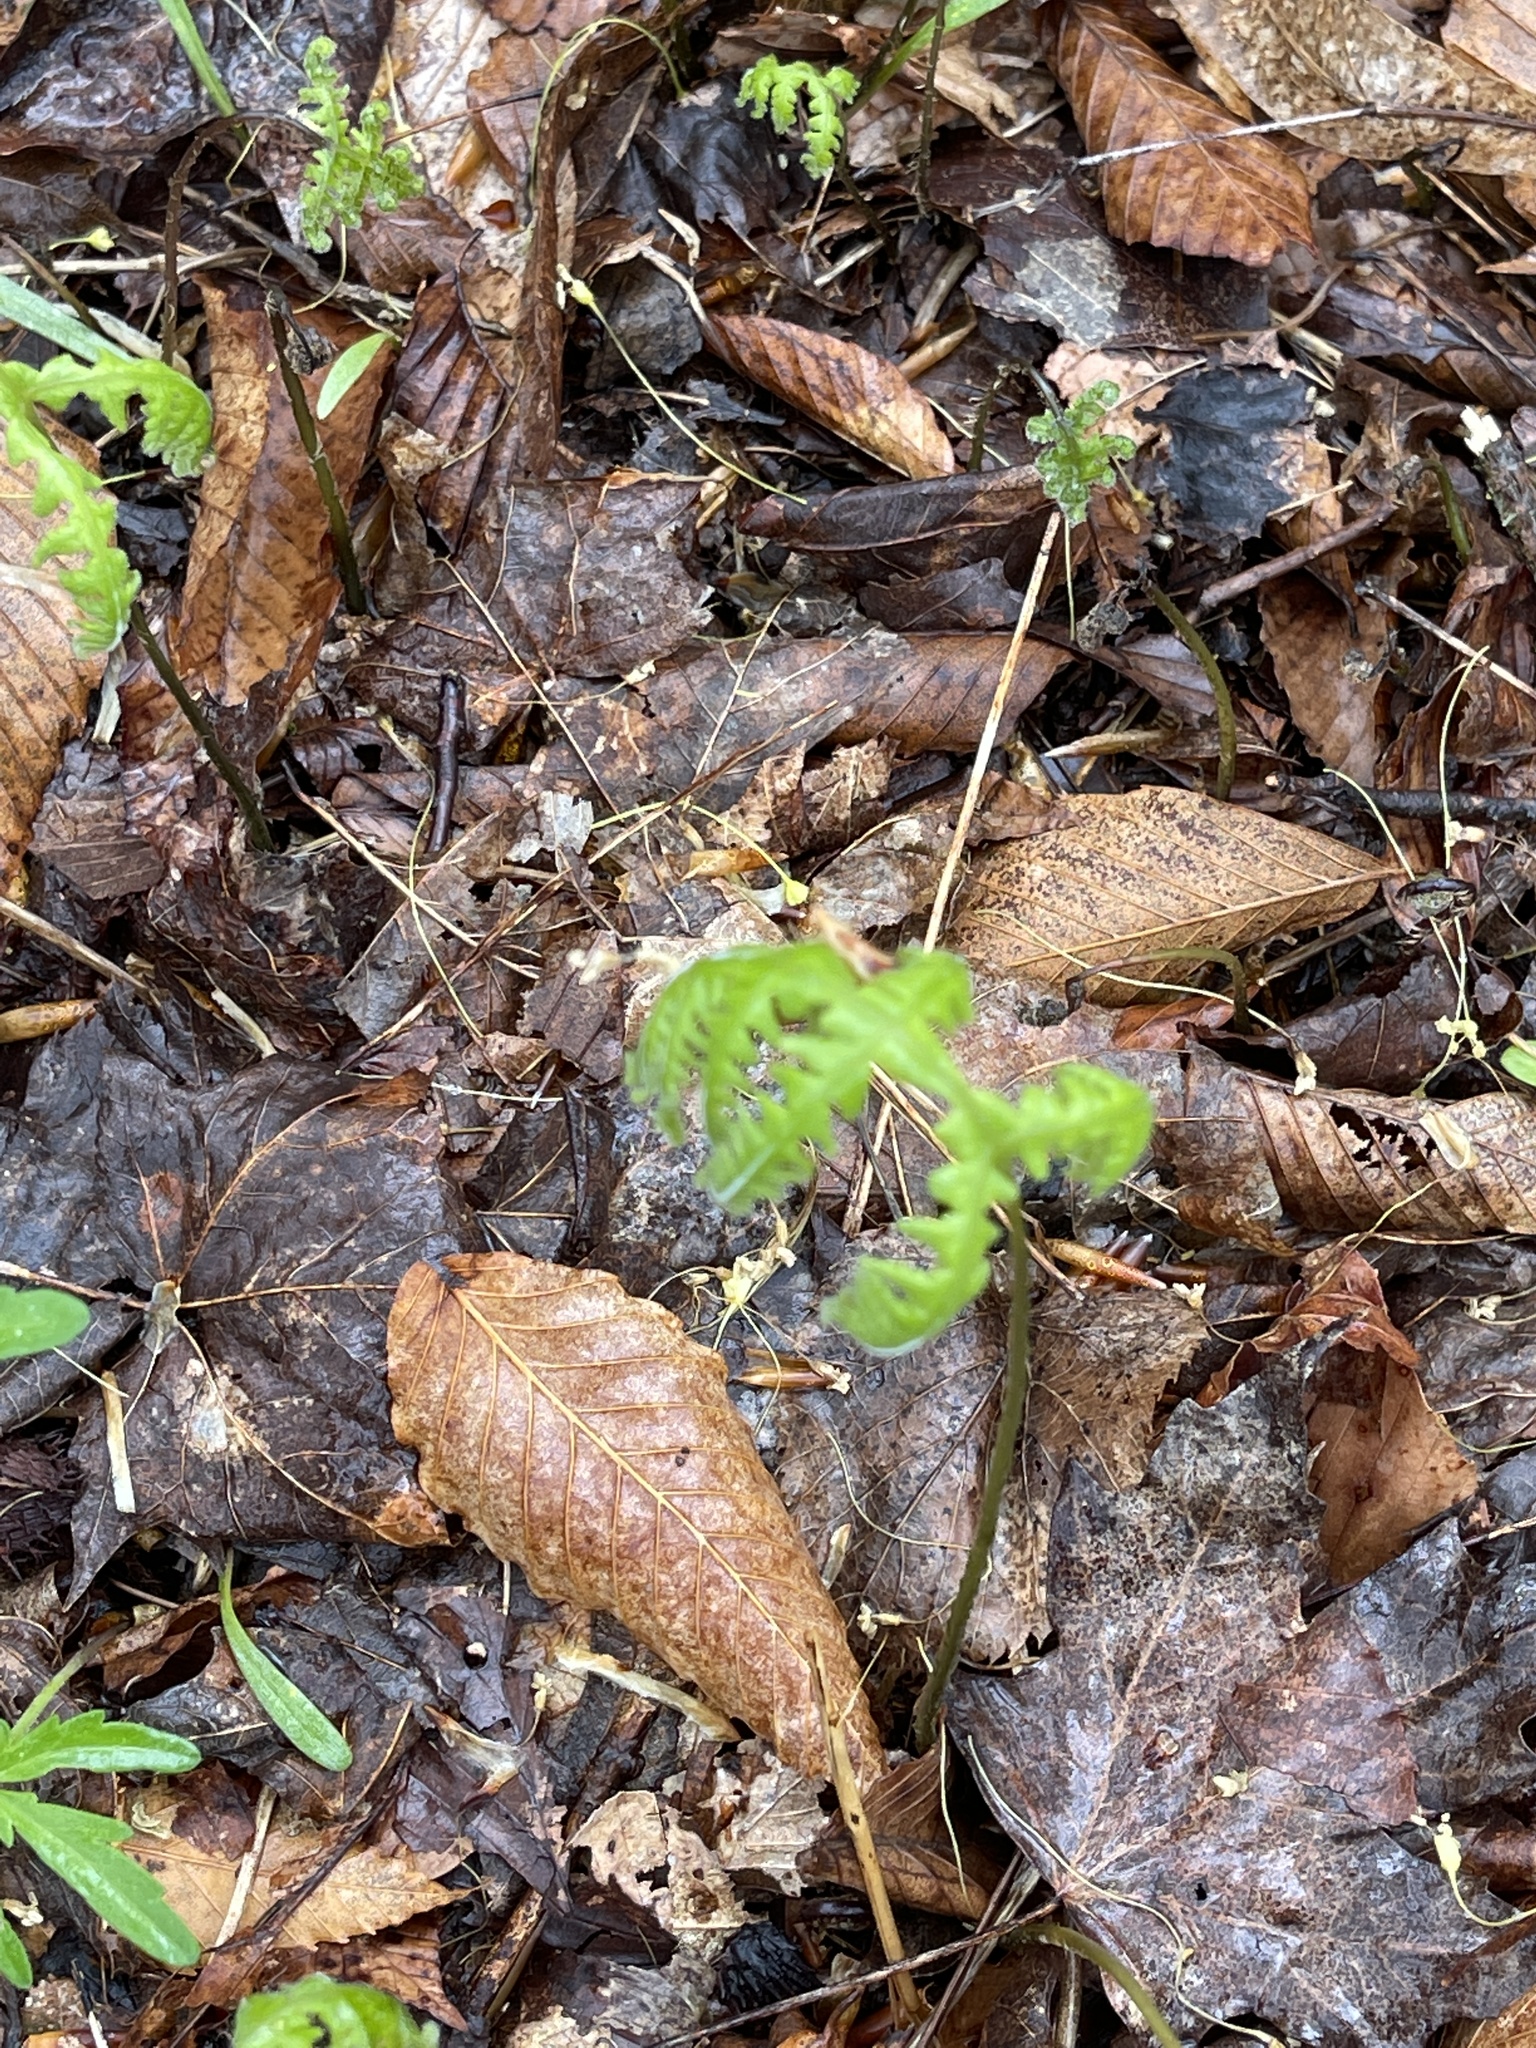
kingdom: Plantae
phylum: Tracheophyta
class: Polypodiopsida
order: Polypodiales
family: Thelypteridaceae
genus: Phegopteris
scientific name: Phegopteris hexagonoptera
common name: Broad beech fern
